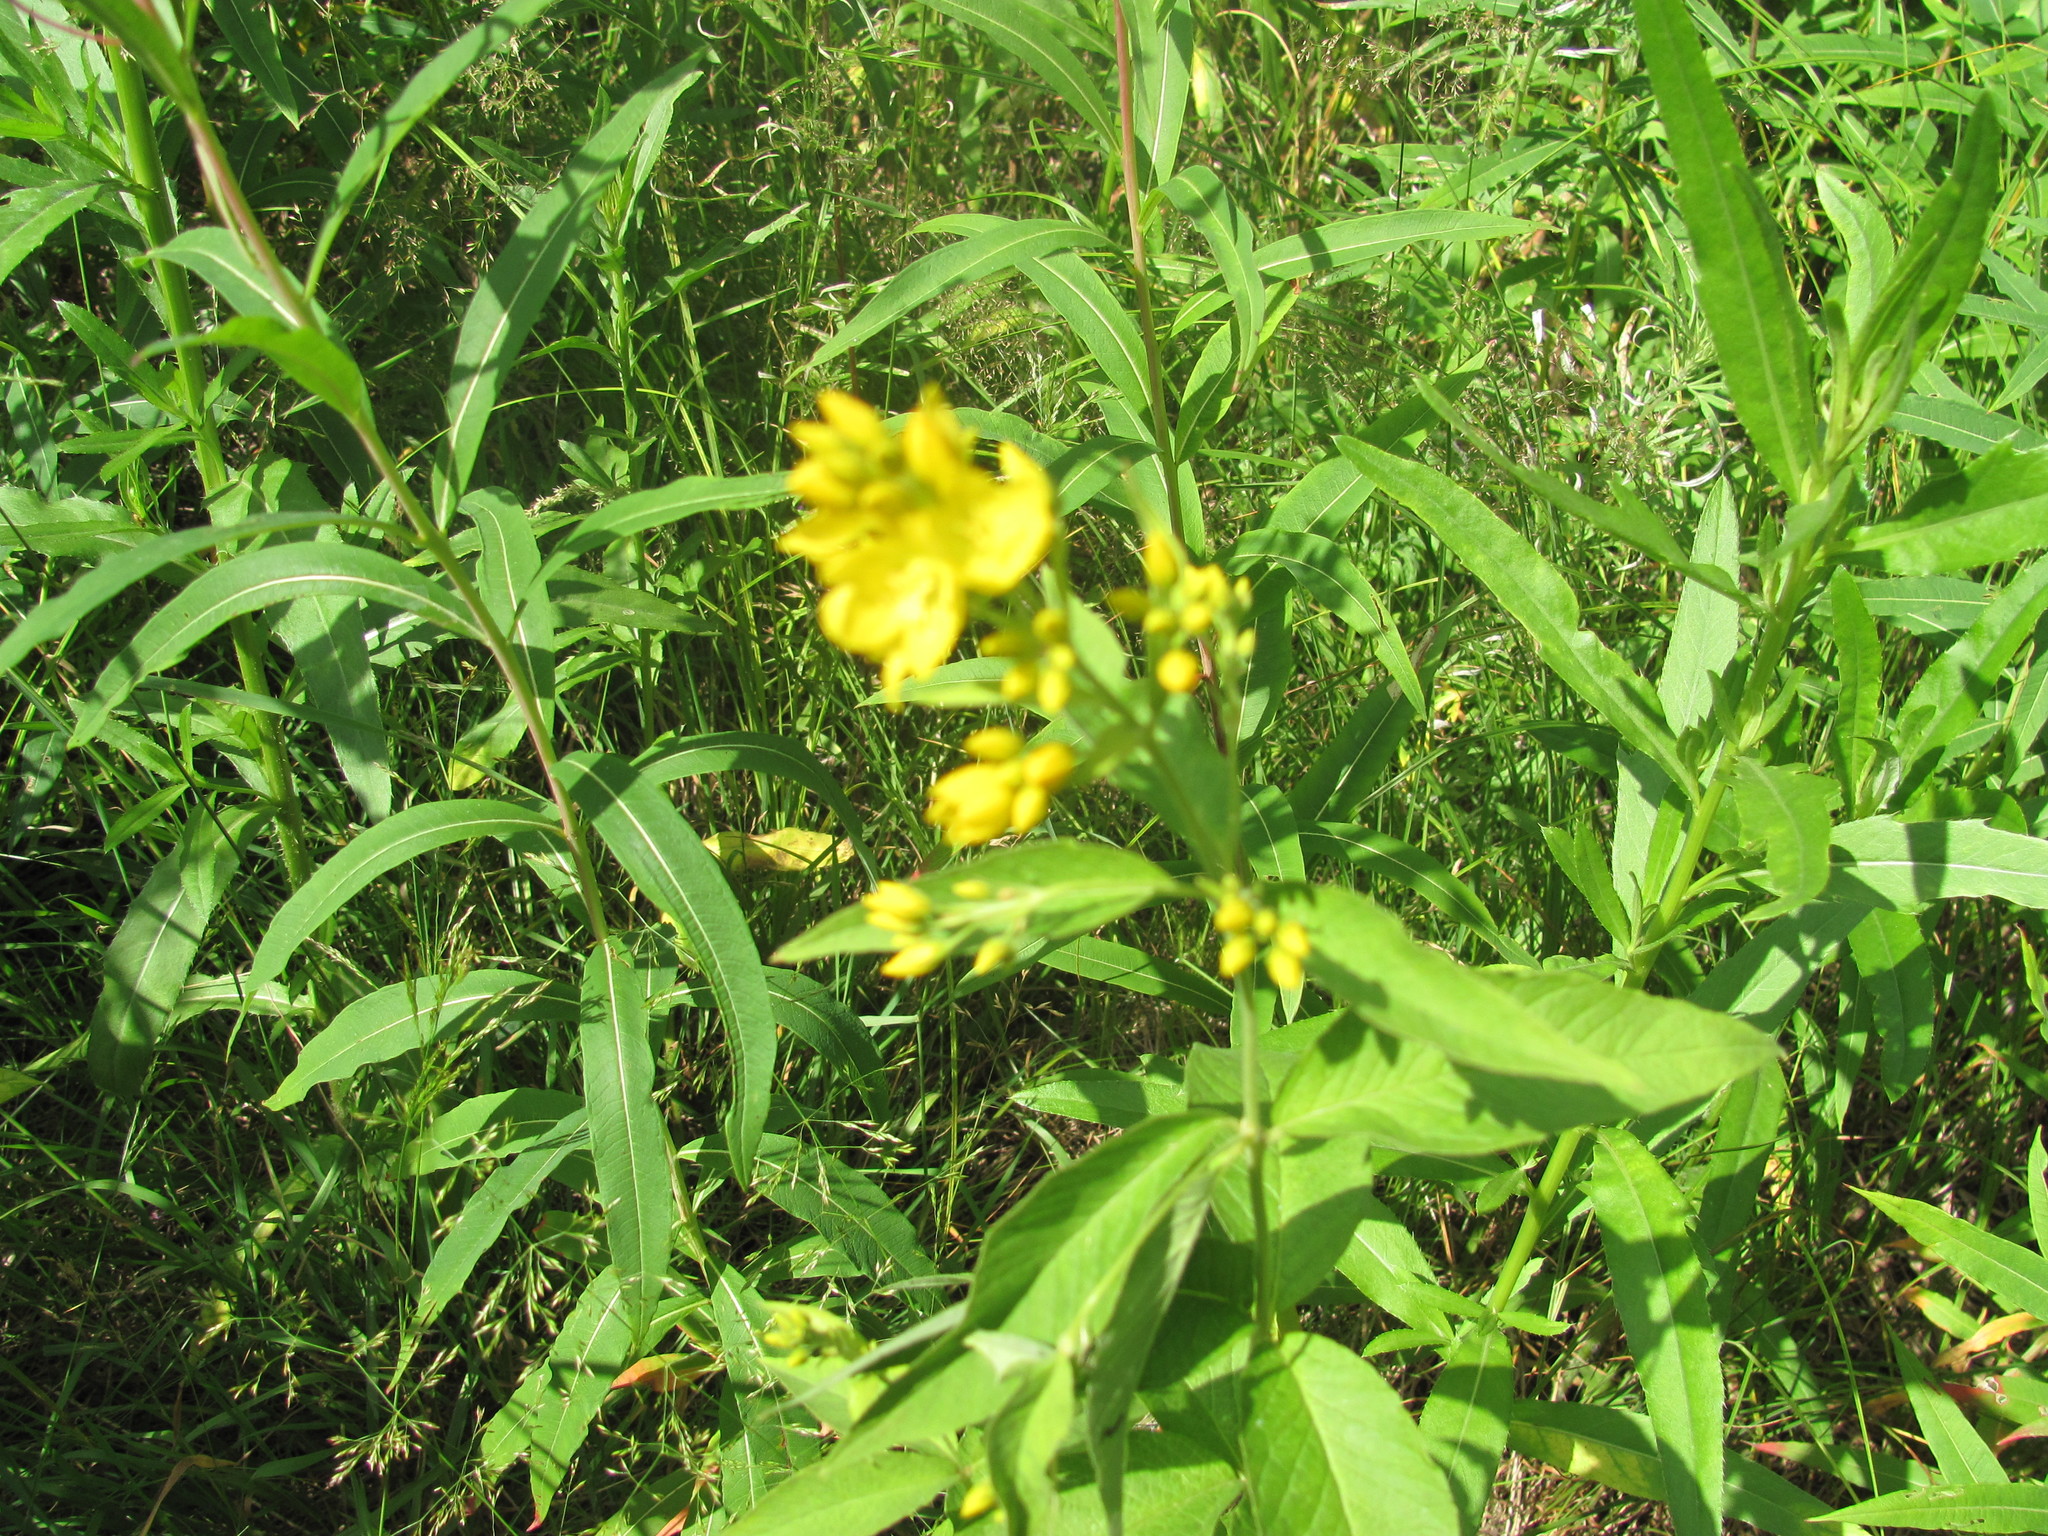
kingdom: Plantae
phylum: Tracheophyta
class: Magnoliopsida
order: Ericales
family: Primulaceae
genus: Lysimachia
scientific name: Lysimachia vulgaris
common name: Yellow loosestrife
